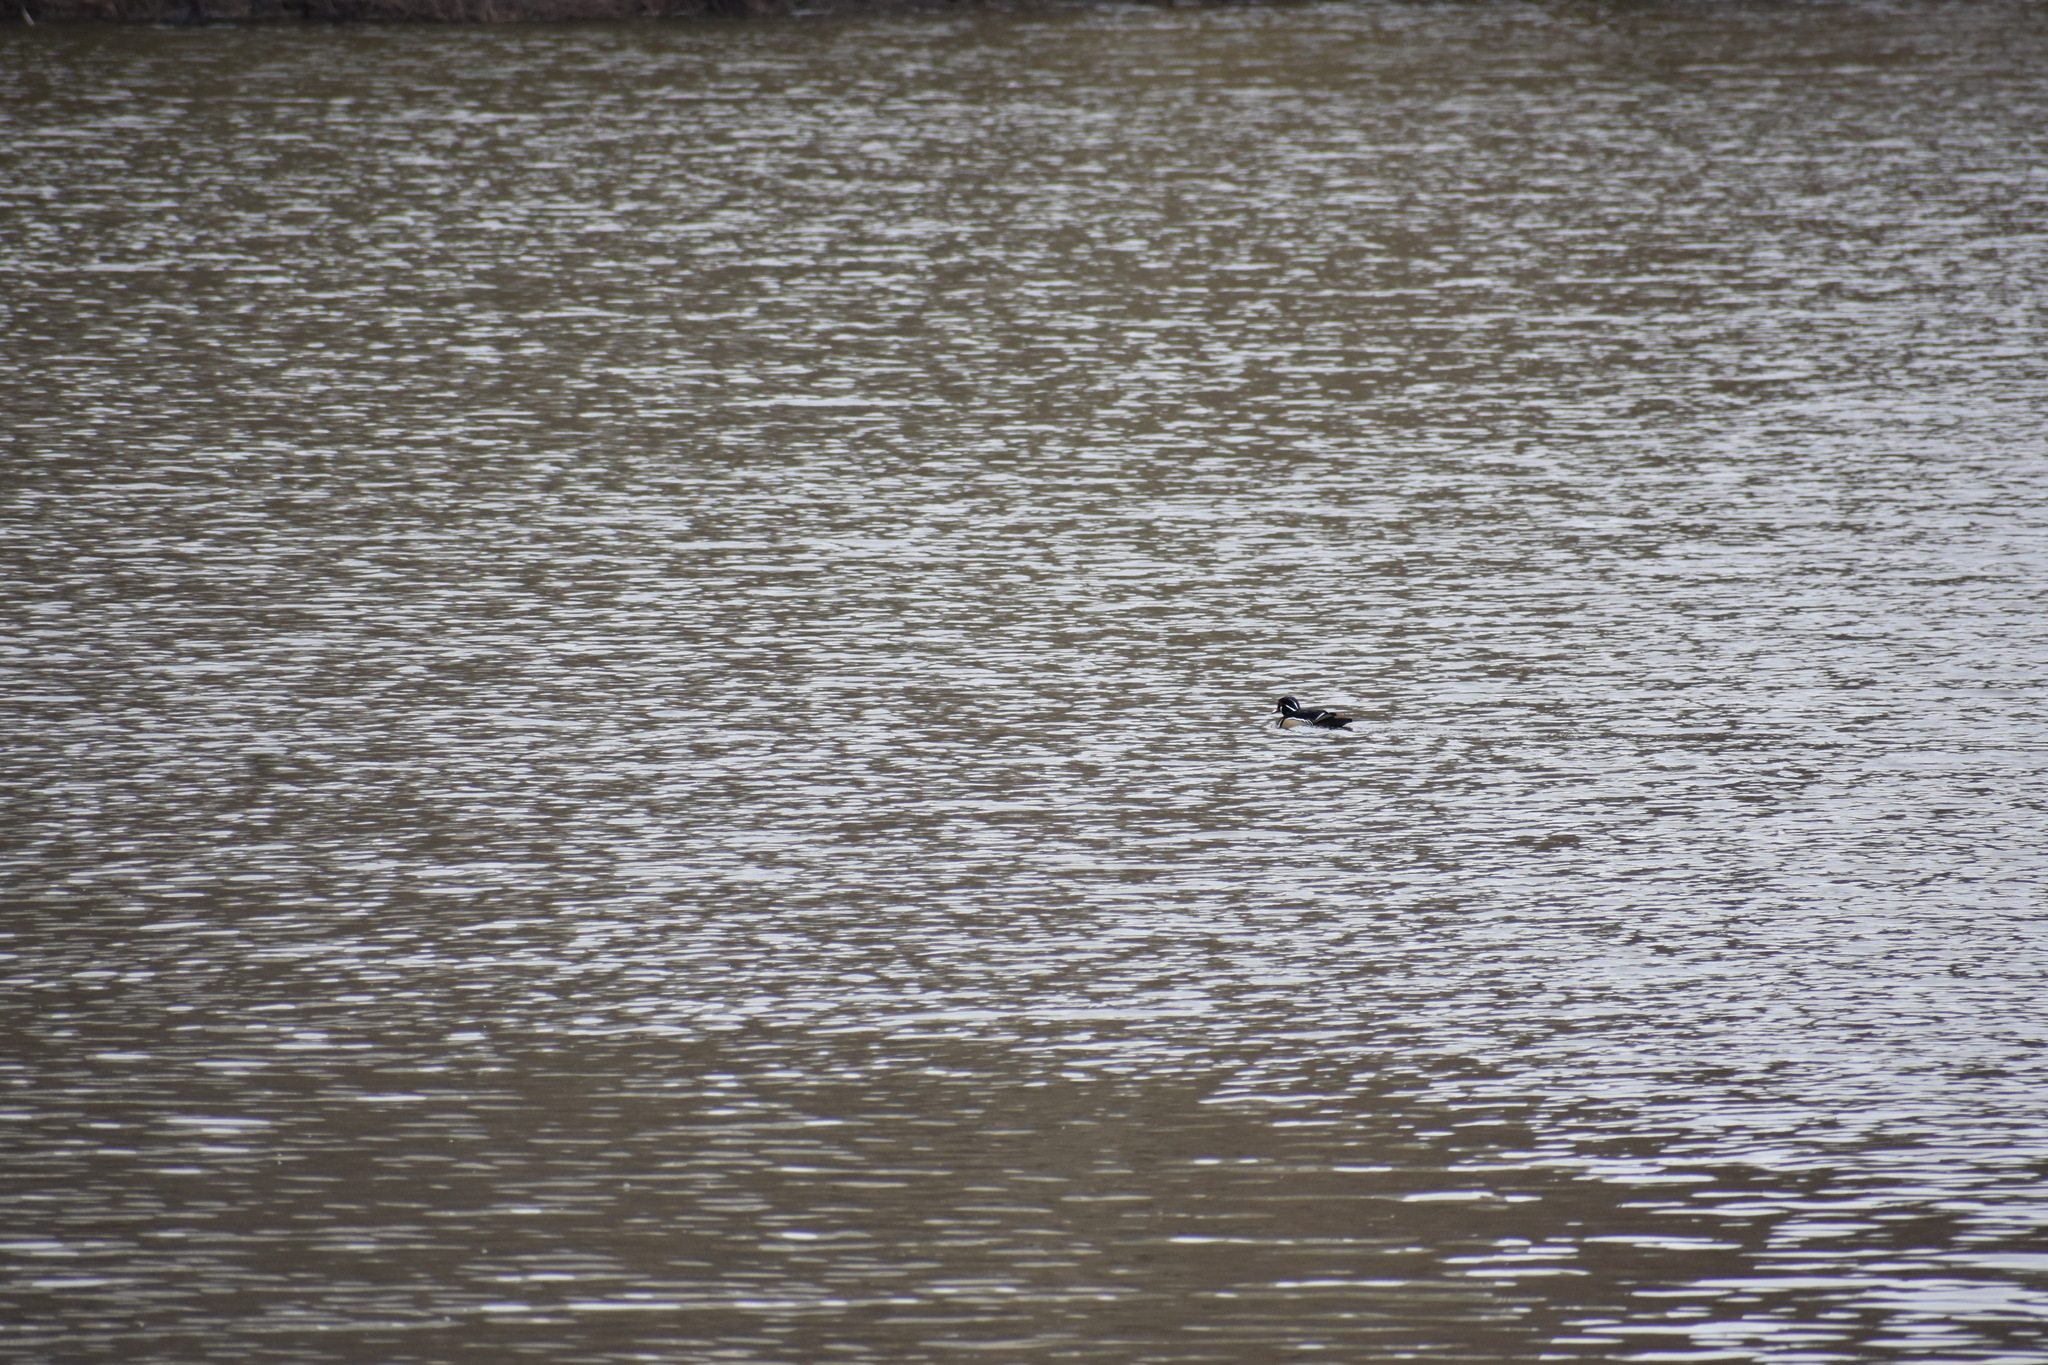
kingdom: Animalia
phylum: Chordata
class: Aves
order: Anseriformes
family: Anatidae
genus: Aix
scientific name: Aix sponsa
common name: Wood duck
